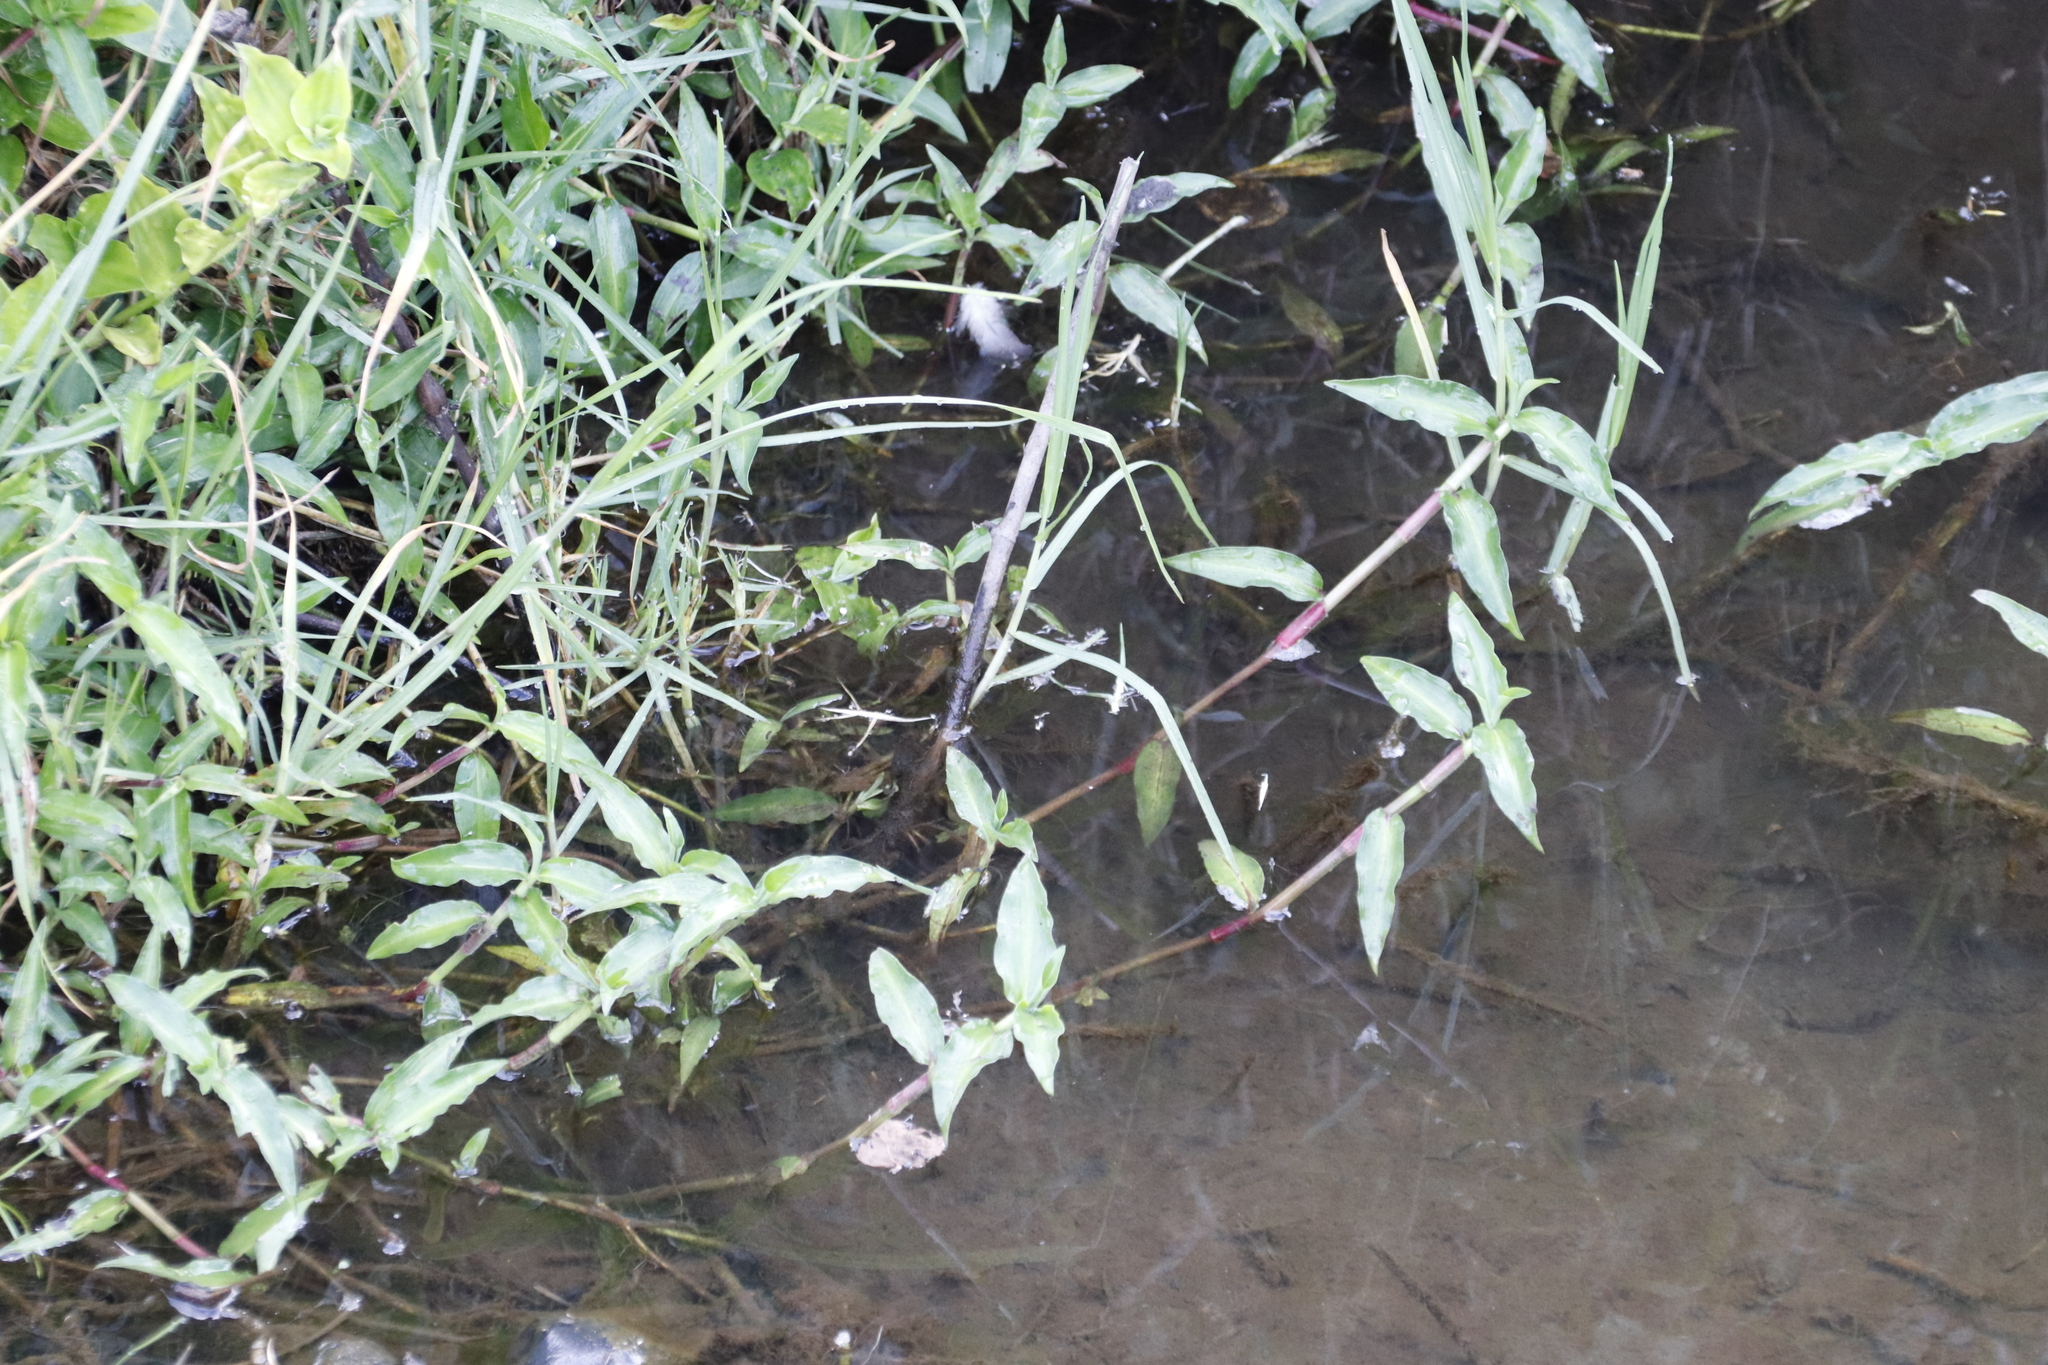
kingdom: Plantae
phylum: Tracheophyta
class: Liliopsida
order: Commelinales
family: Commelinaceae
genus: Commelina
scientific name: Commelina diffusa
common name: Climbing dayflower
